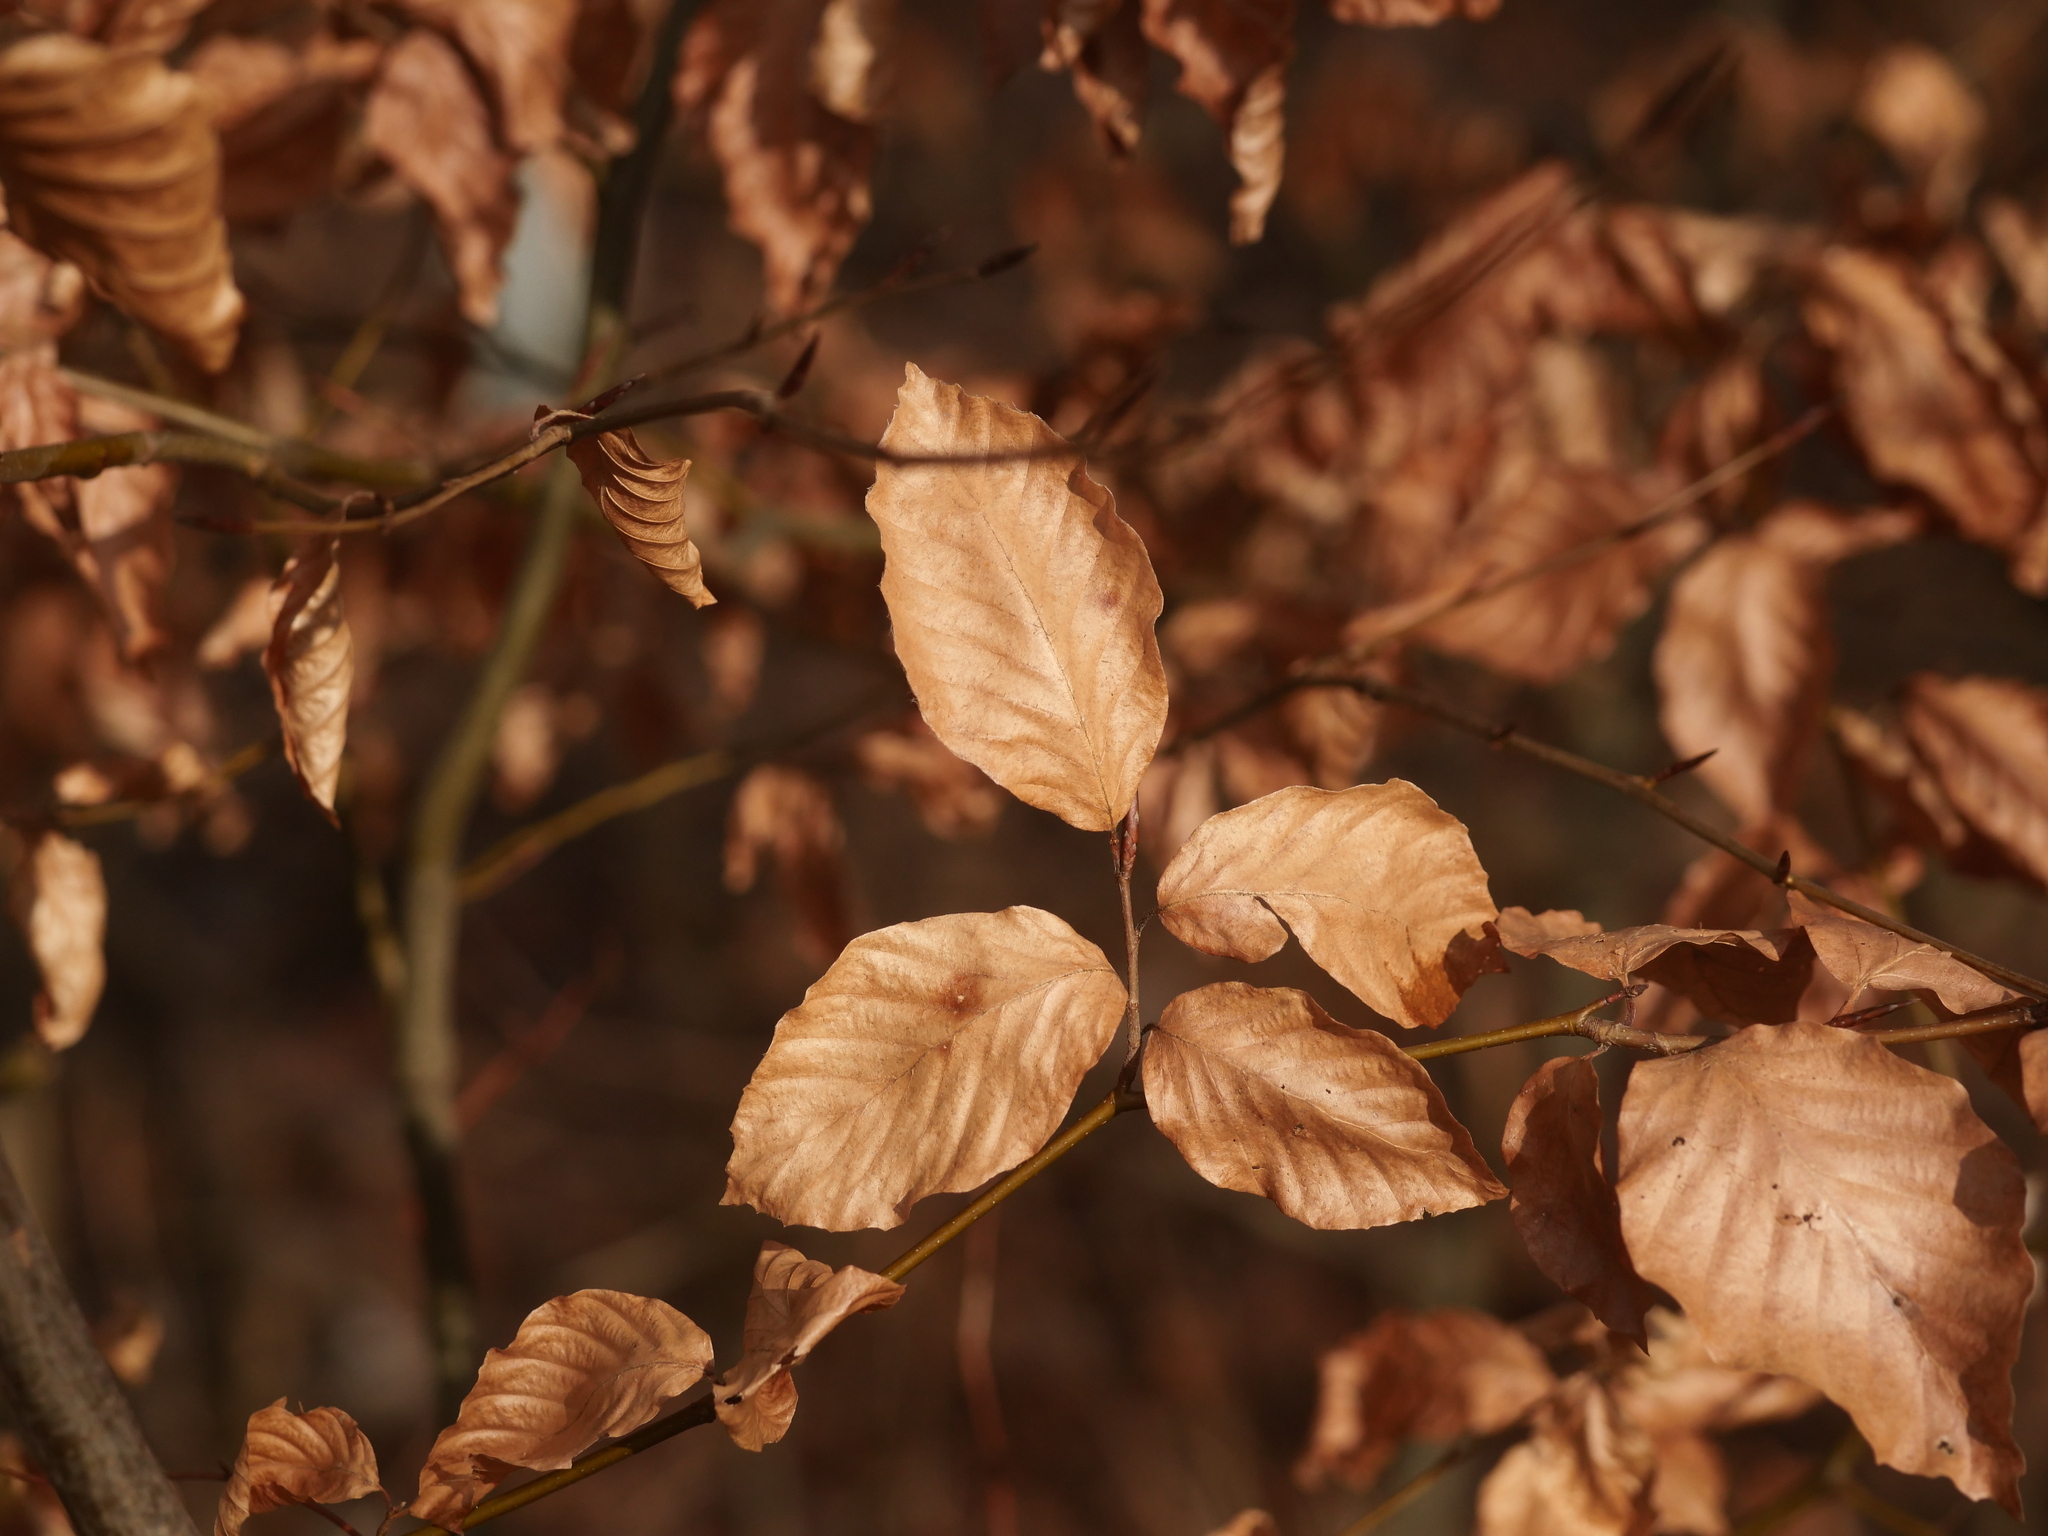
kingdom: Plantae
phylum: Tracheophyta
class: Magnoliopsida
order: Fagales
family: Fagaceae
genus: Fagus
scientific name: Fagus sylvatica
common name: Beech
